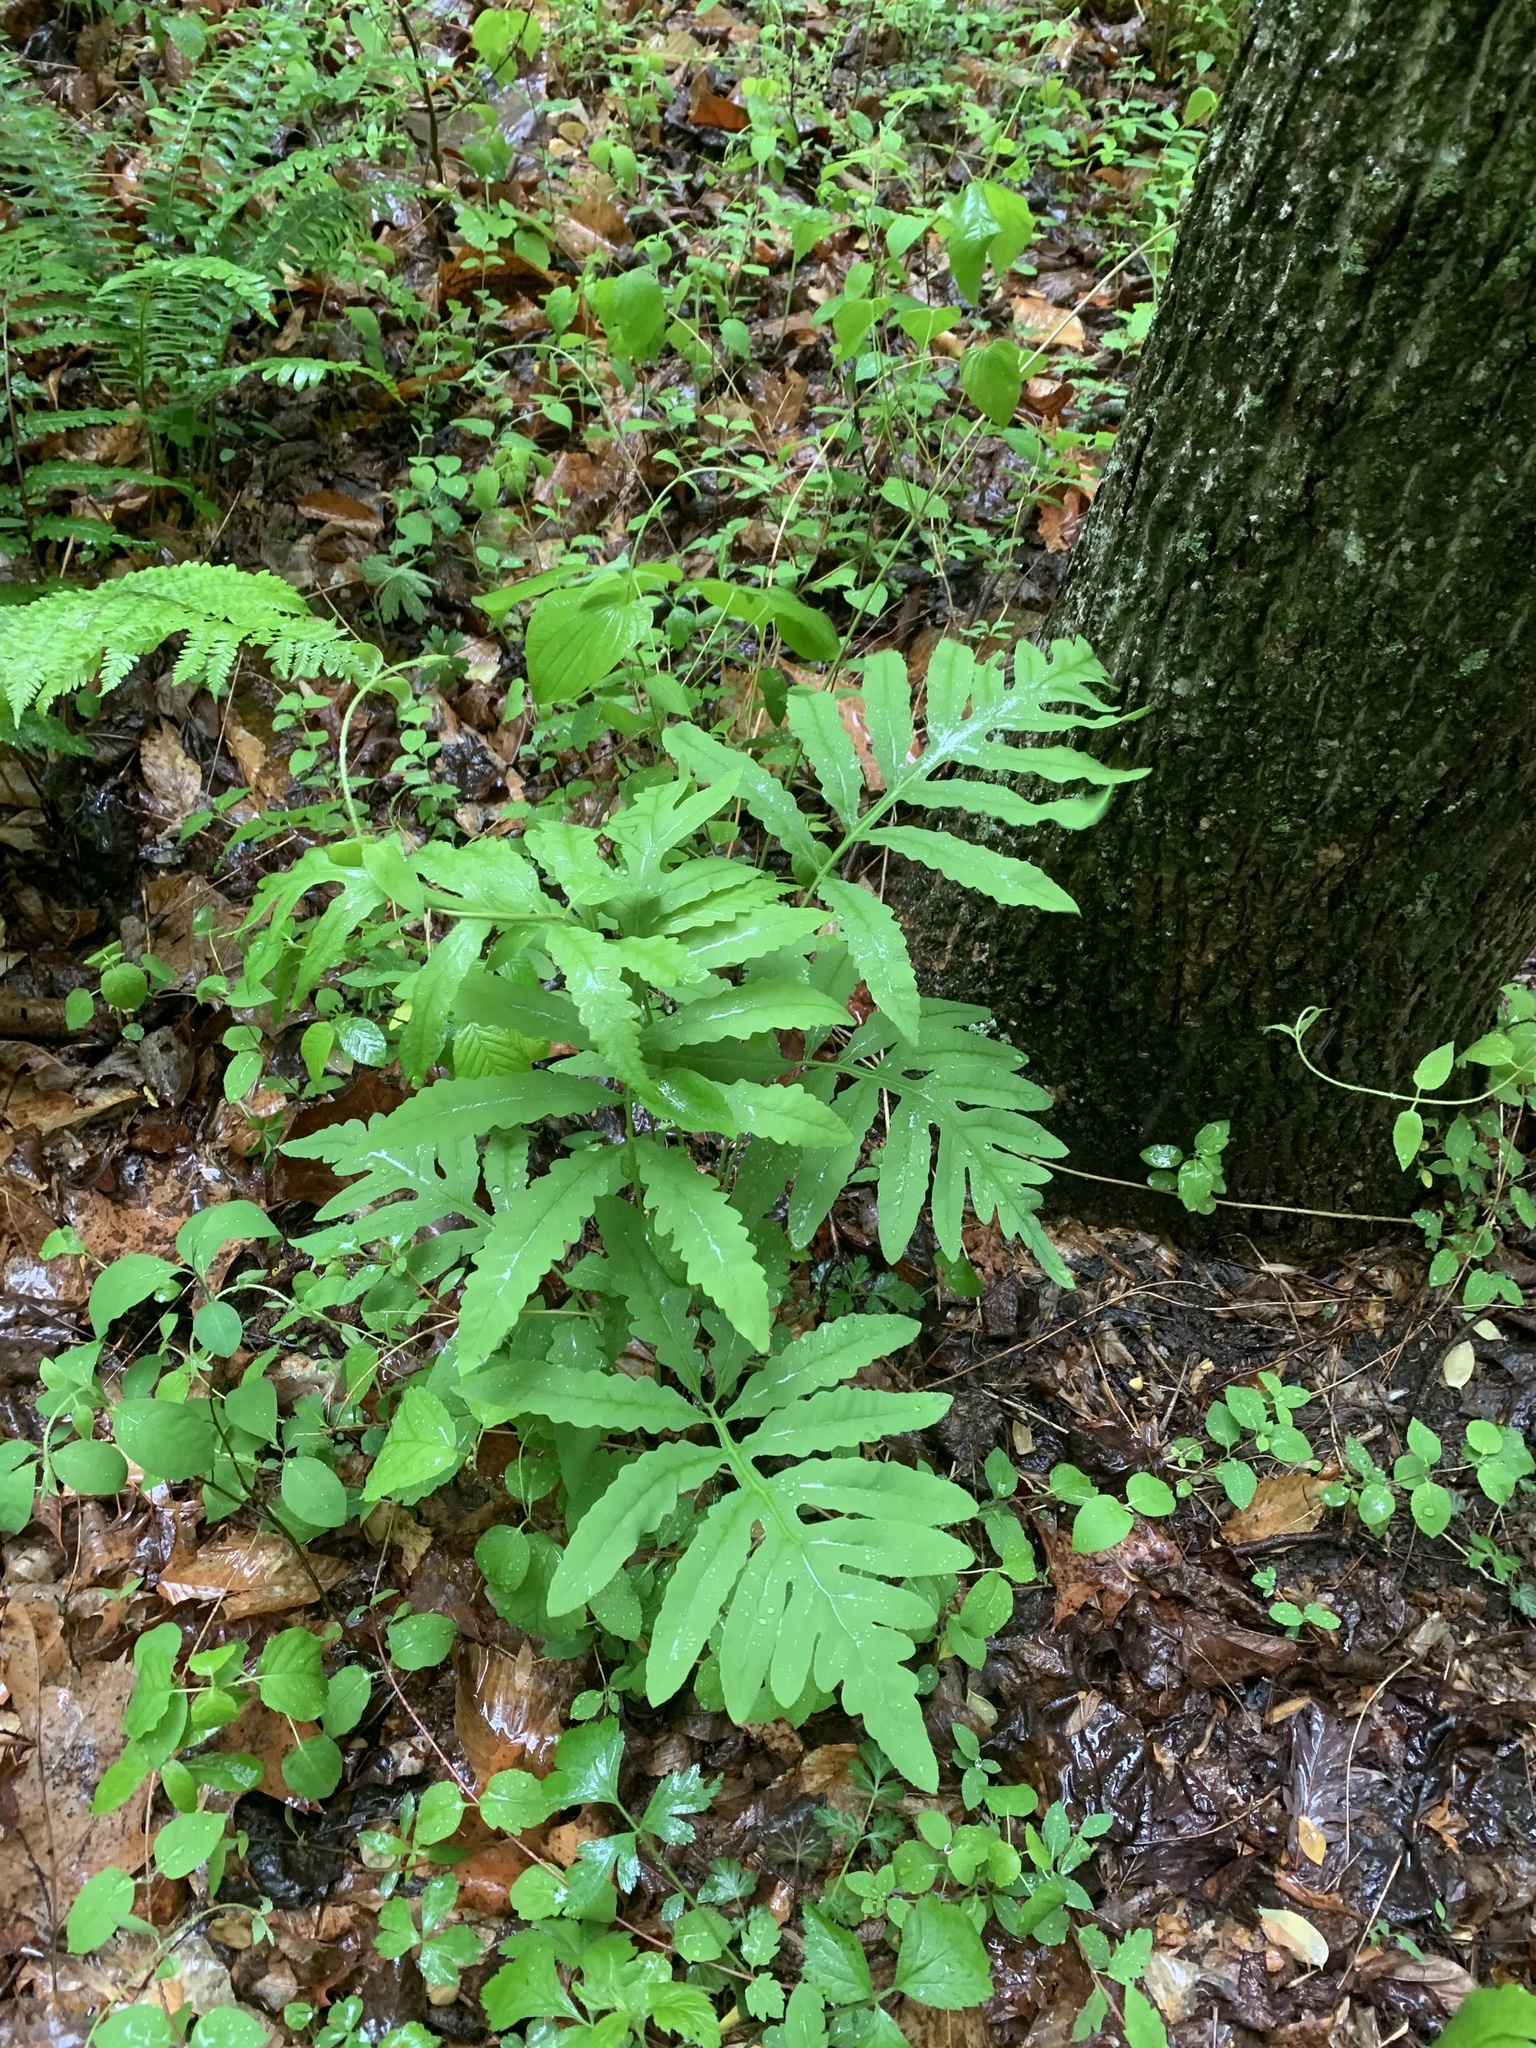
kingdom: Plantae
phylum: Tracheophyta
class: Polypodiopsida
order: Polypodiales
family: Onocleaceae
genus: Onoclea
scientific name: Onoclea sensibilis
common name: Sensitive fern
